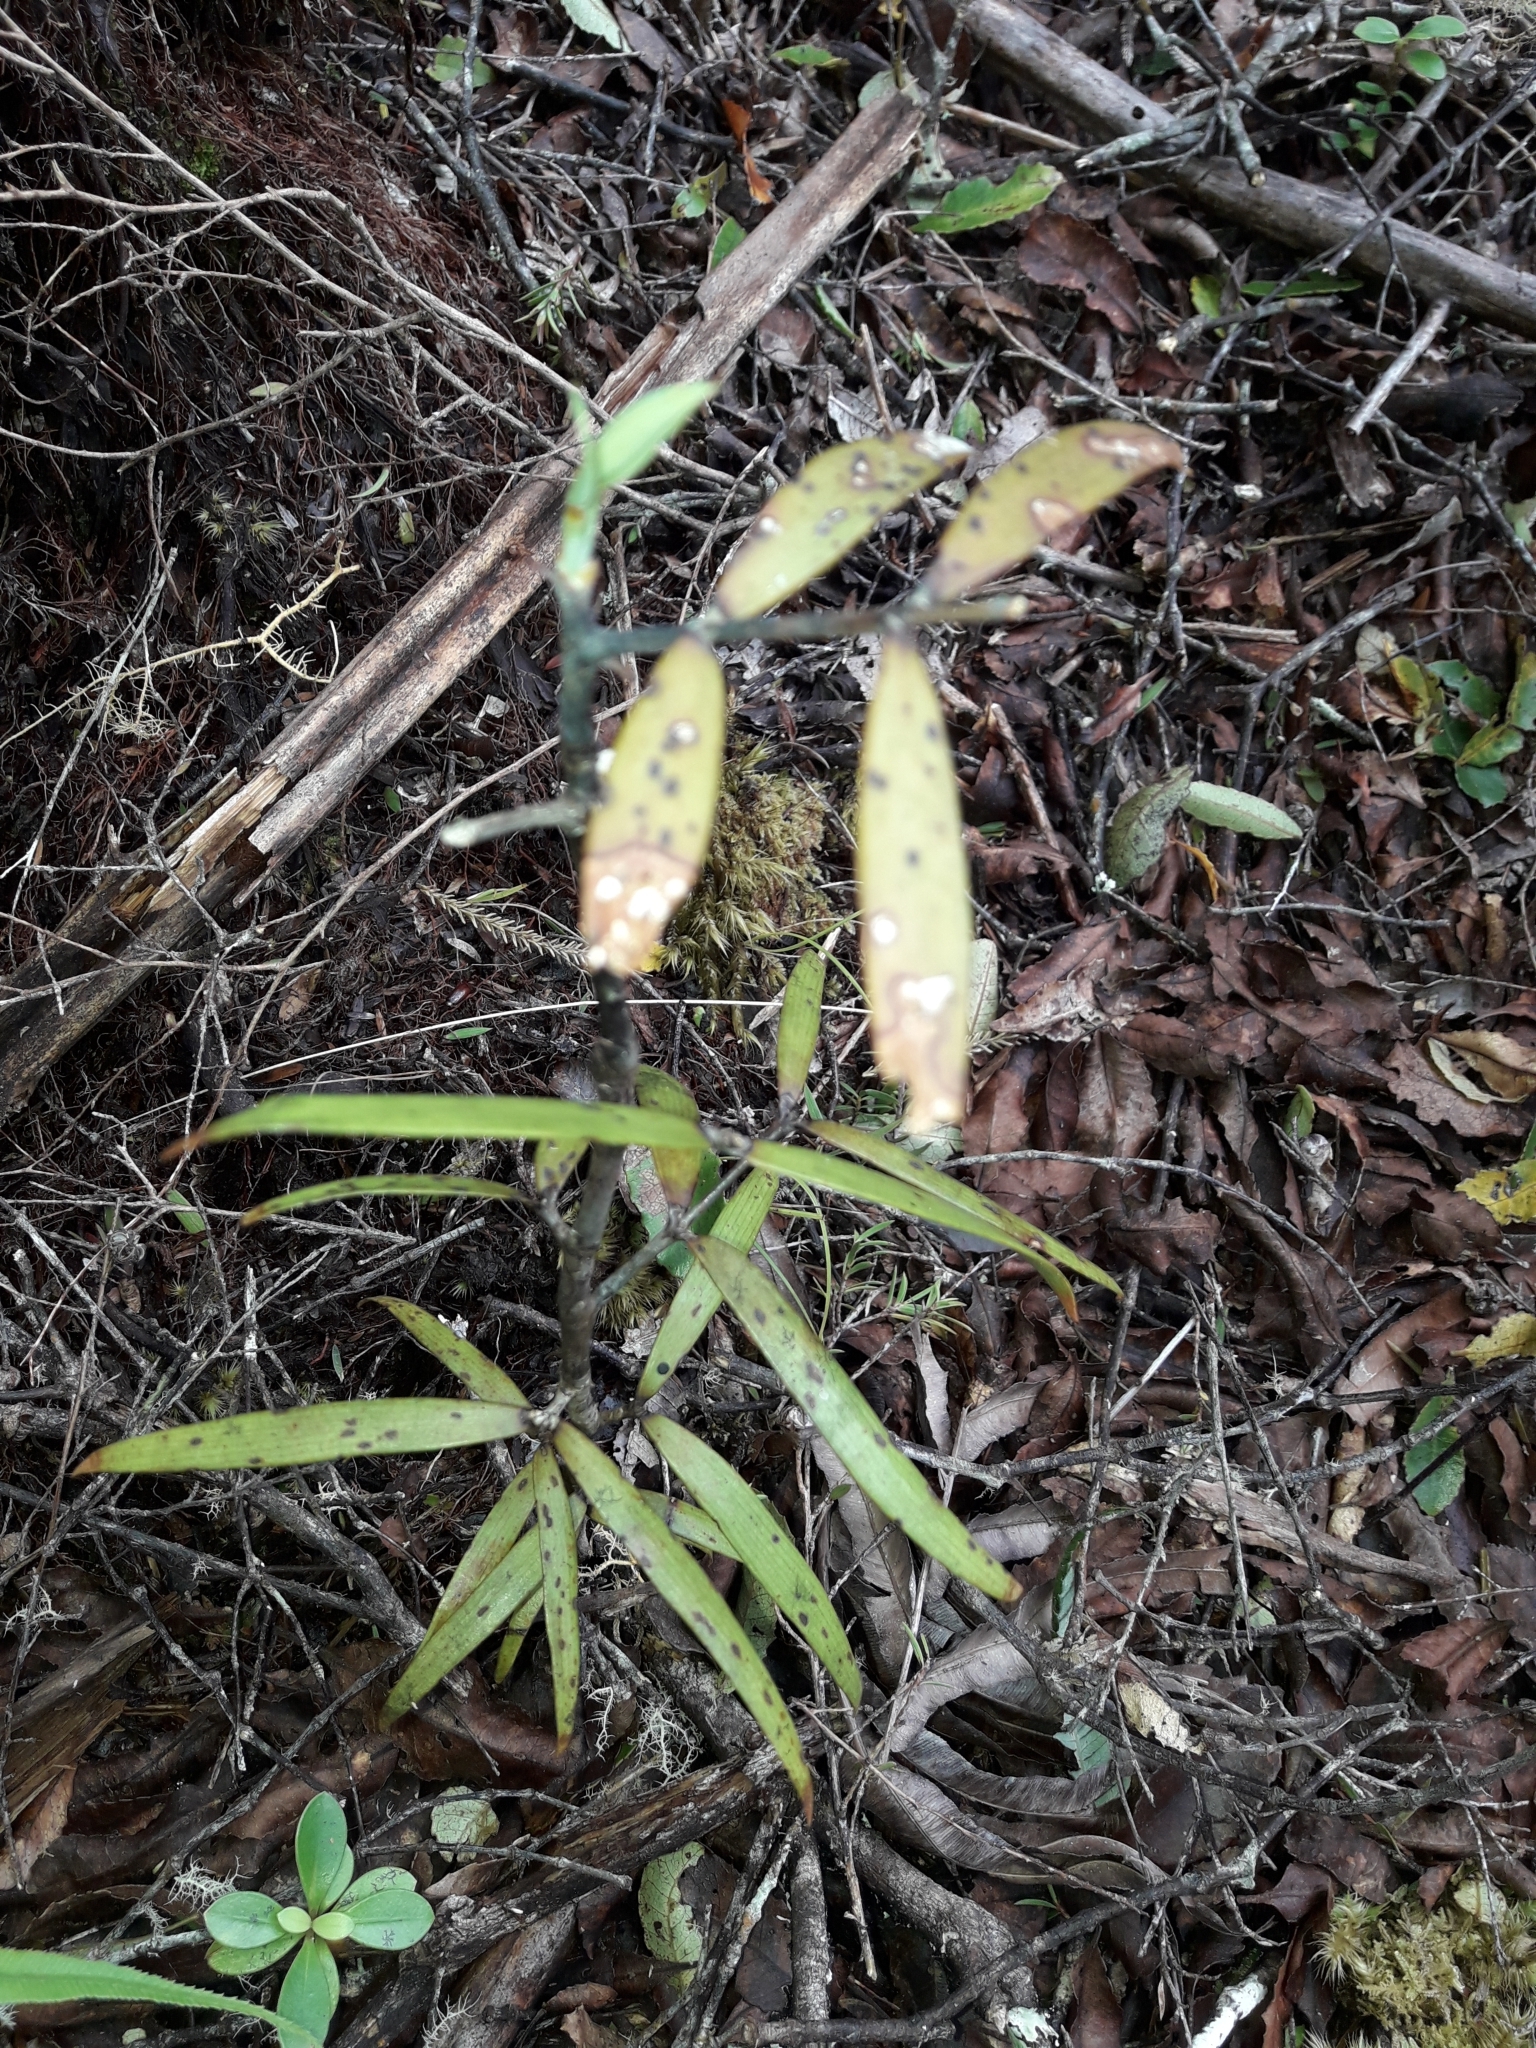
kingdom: Plantae
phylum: Tracheophyta
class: Pinopsida
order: Pinales
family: Araucariaceae
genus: Agathis
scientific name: Agathis australis
